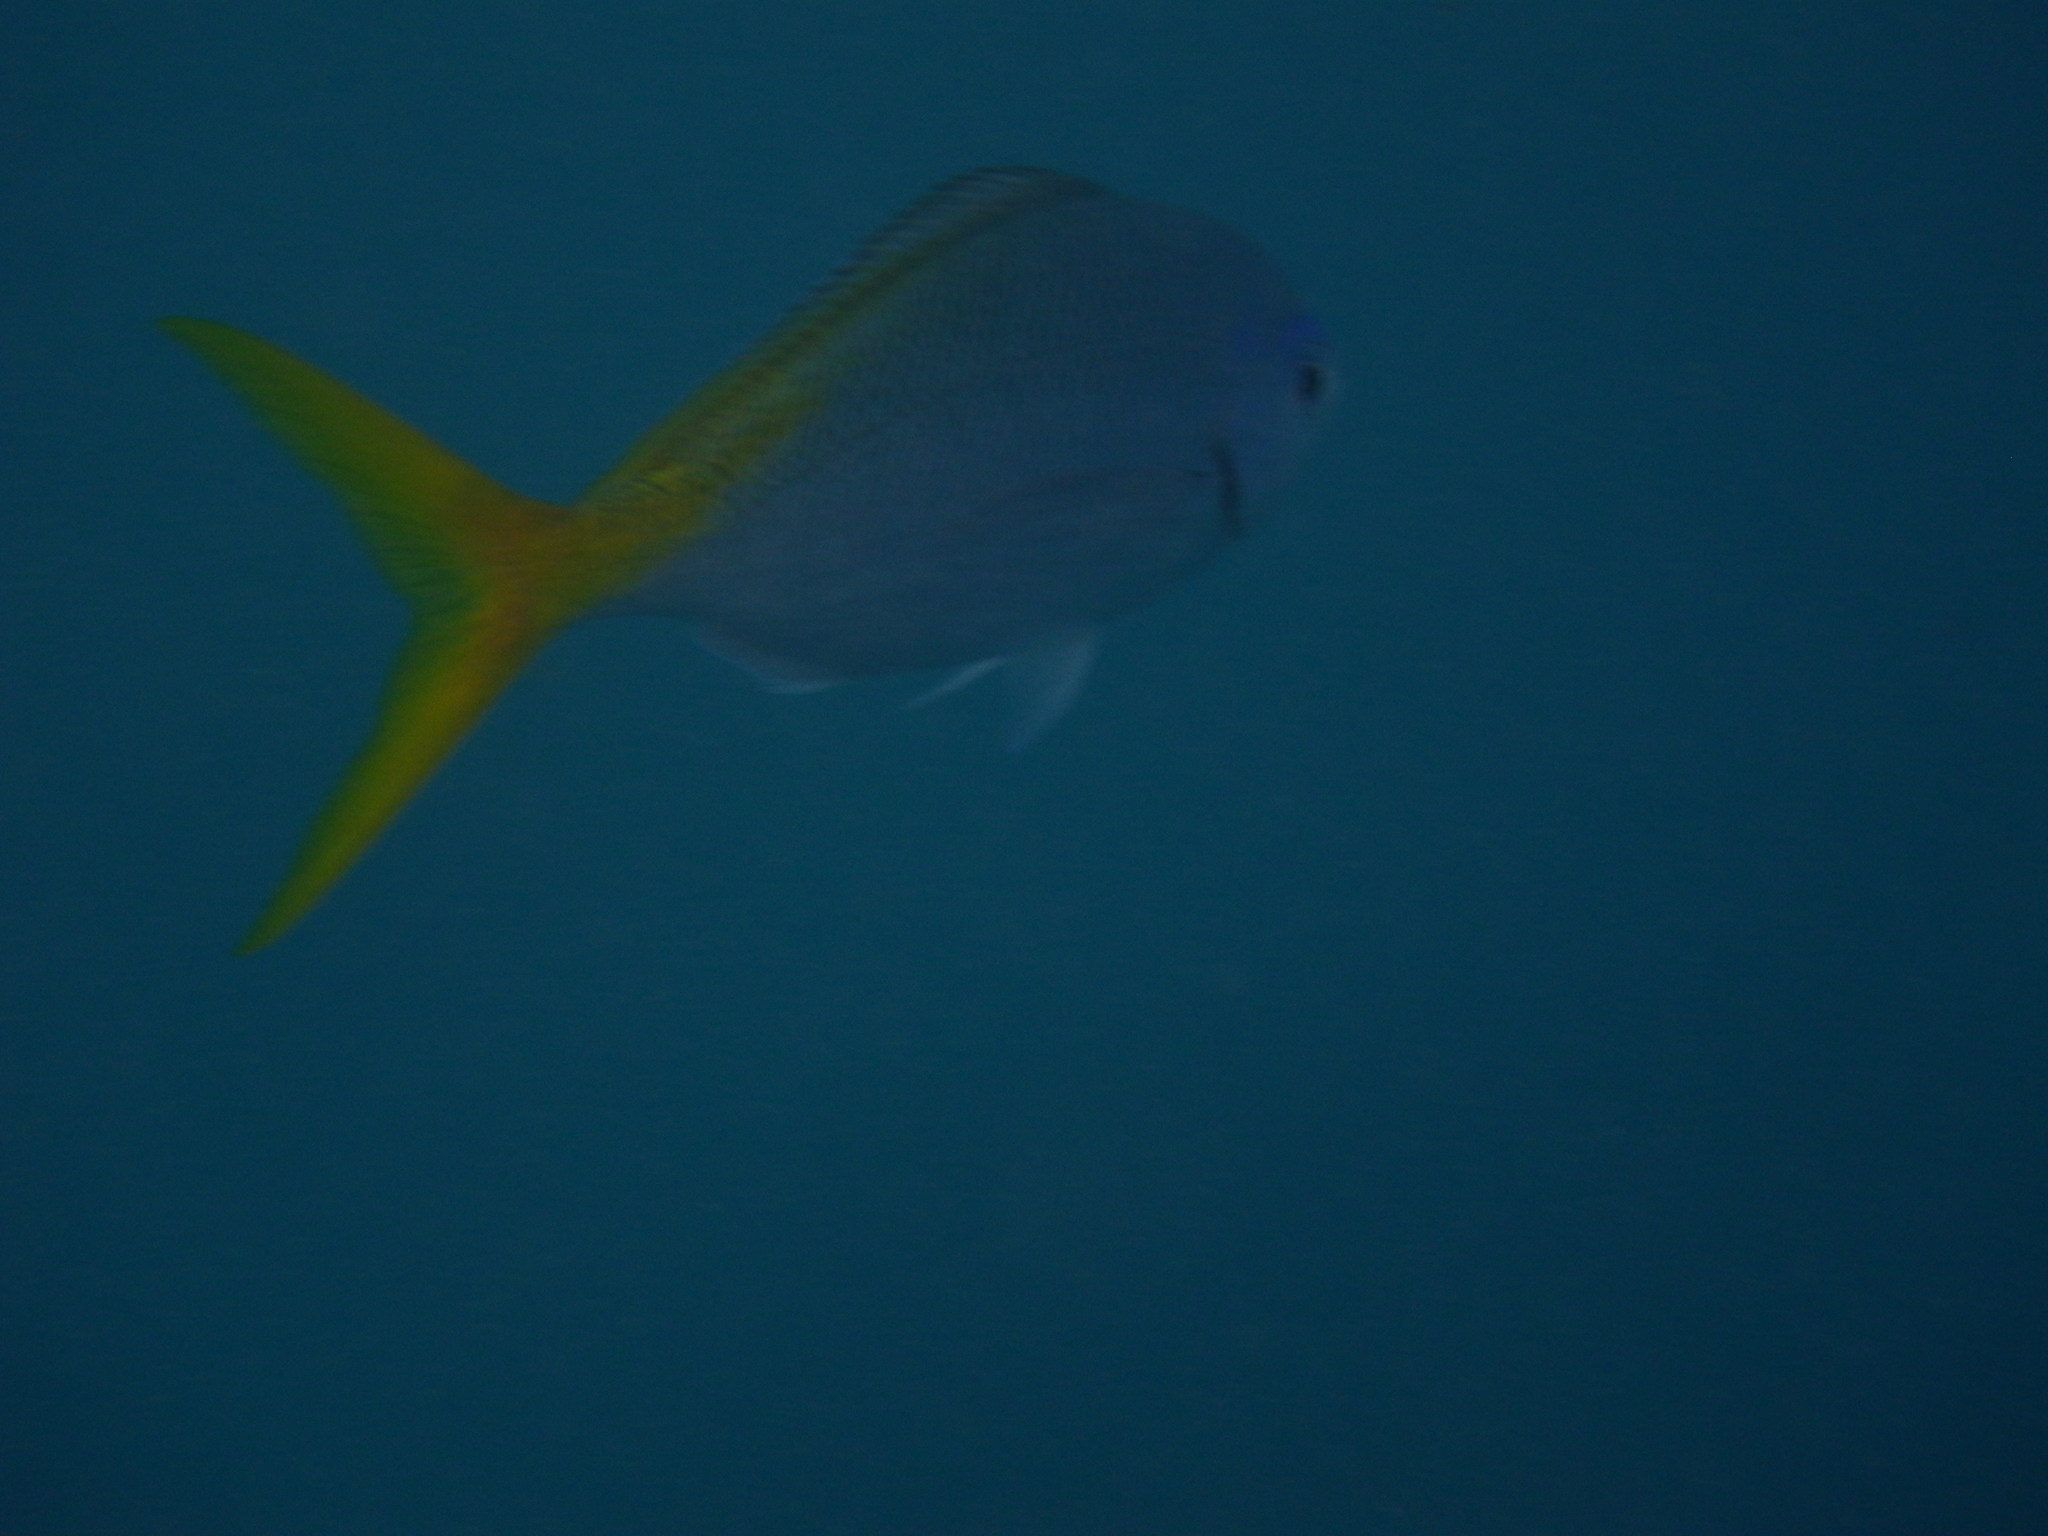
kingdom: Animalia
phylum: Chordata
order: Perciformes
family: Caesionidae
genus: Caesio
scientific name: Caesio cuning
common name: Red-bellied fusilier
